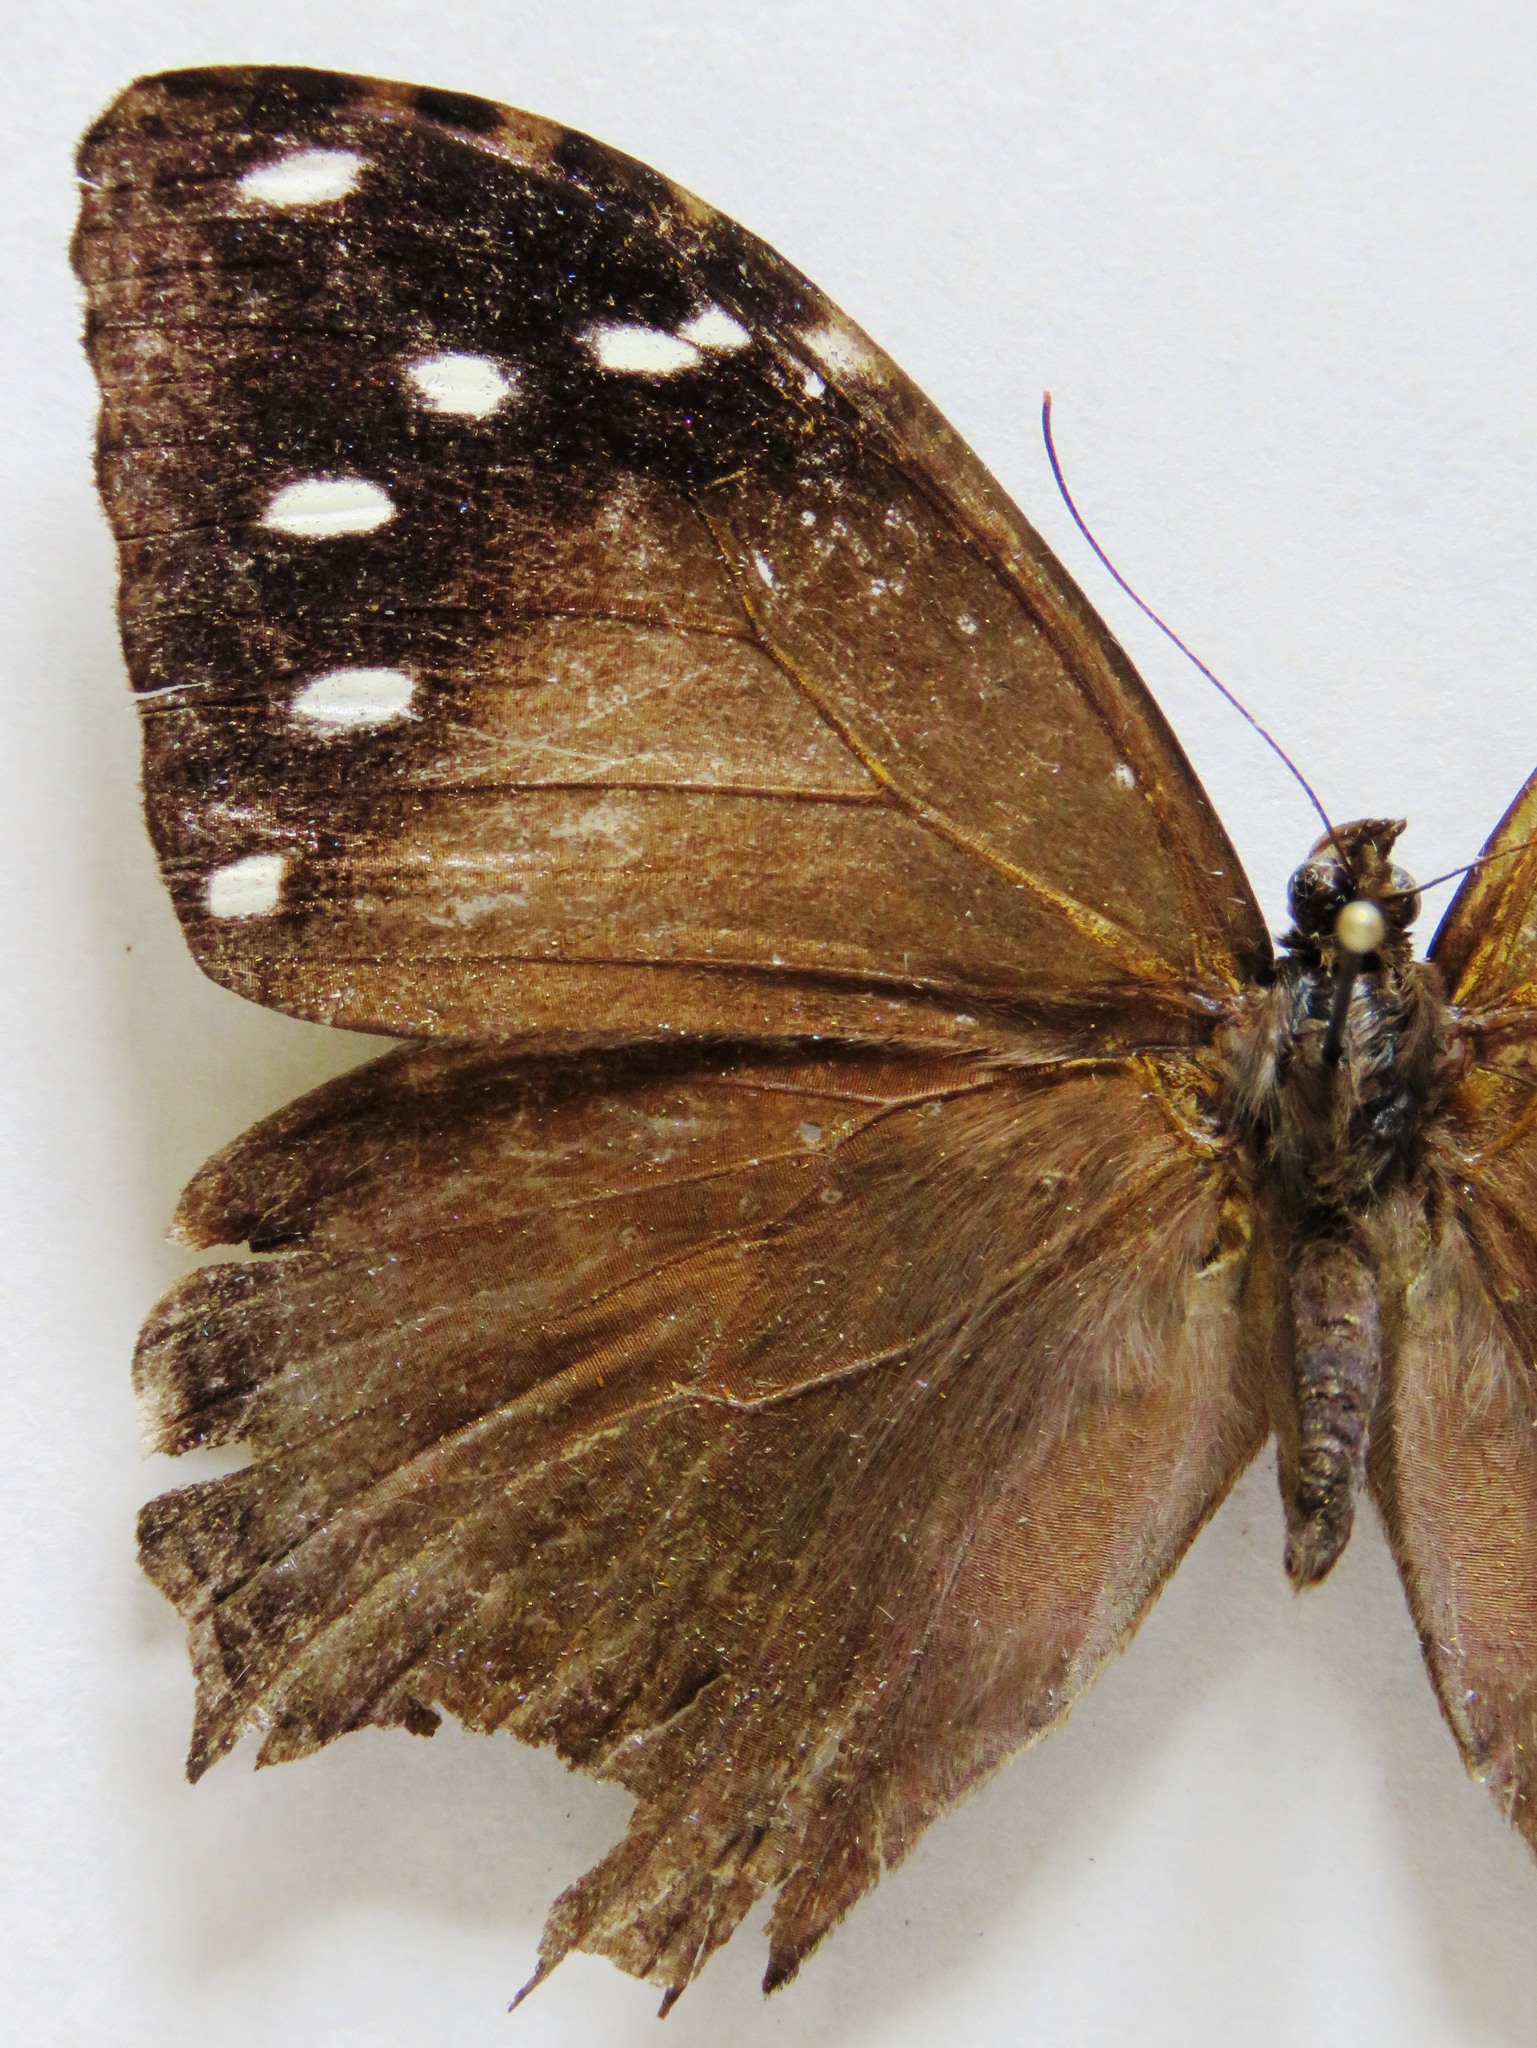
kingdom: Animalia
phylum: Arthropoda
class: Insecta
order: Lepidoptera
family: Nymphalidae
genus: Manataria
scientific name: Manataria maculata
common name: White-spotted satyr
